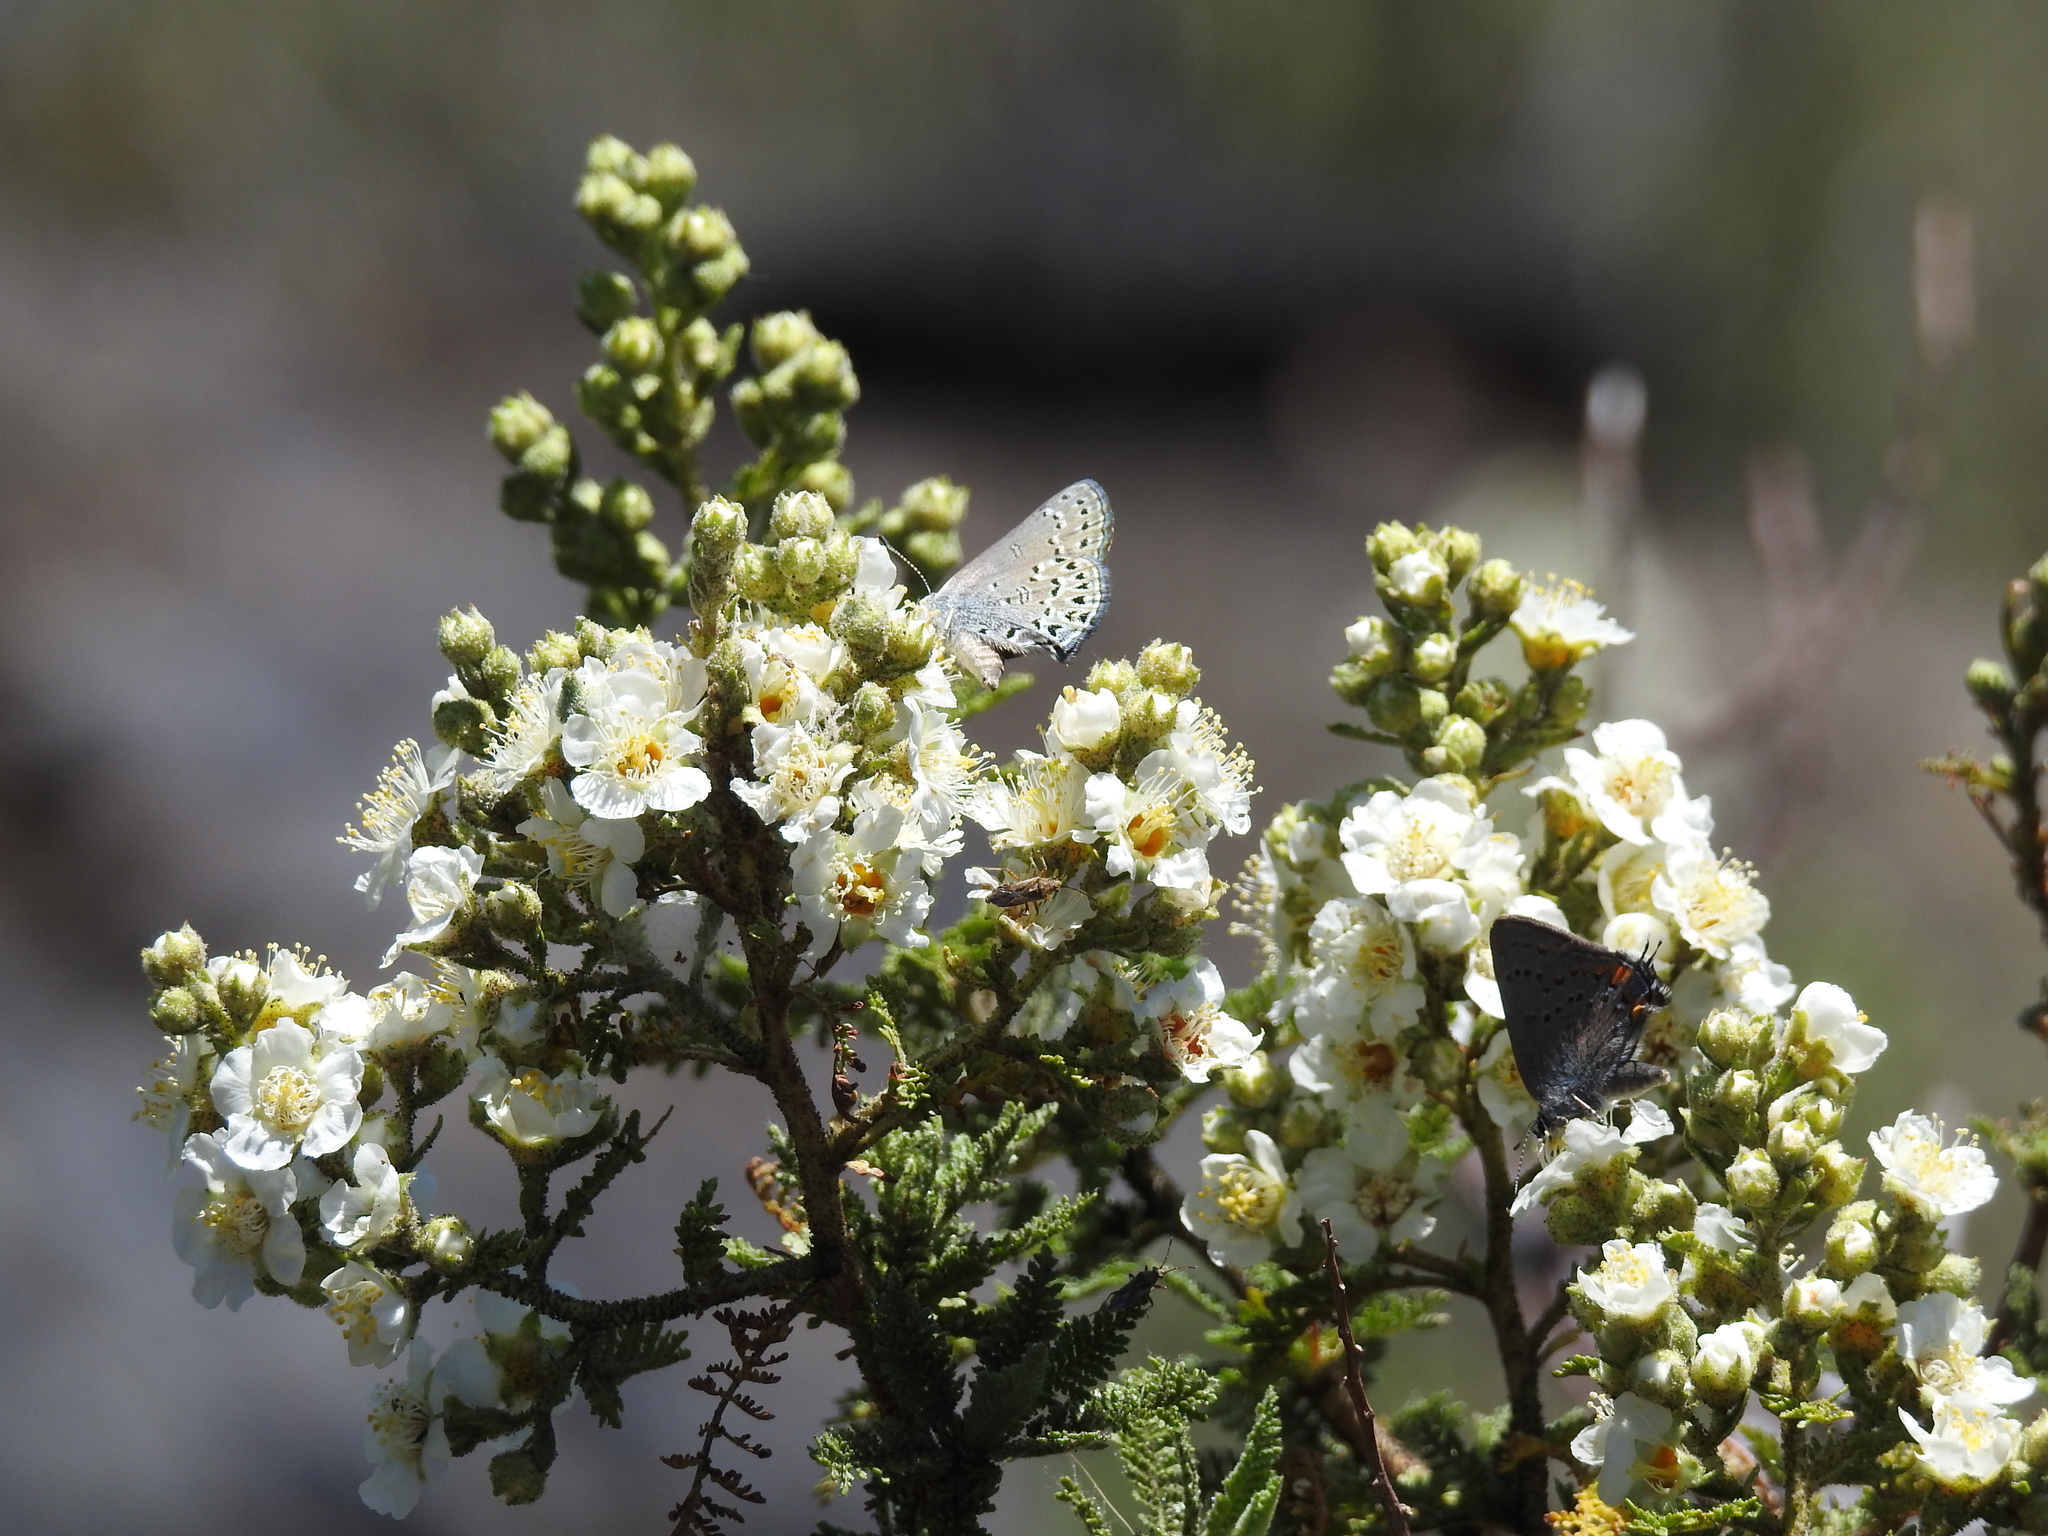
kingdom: Animalia
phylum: Arthropoda
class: Insecta
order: Lepidoptera
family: Lycaenidae
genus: Satyrium
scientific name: Satyrium behrii
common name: Behr's hairstreak
